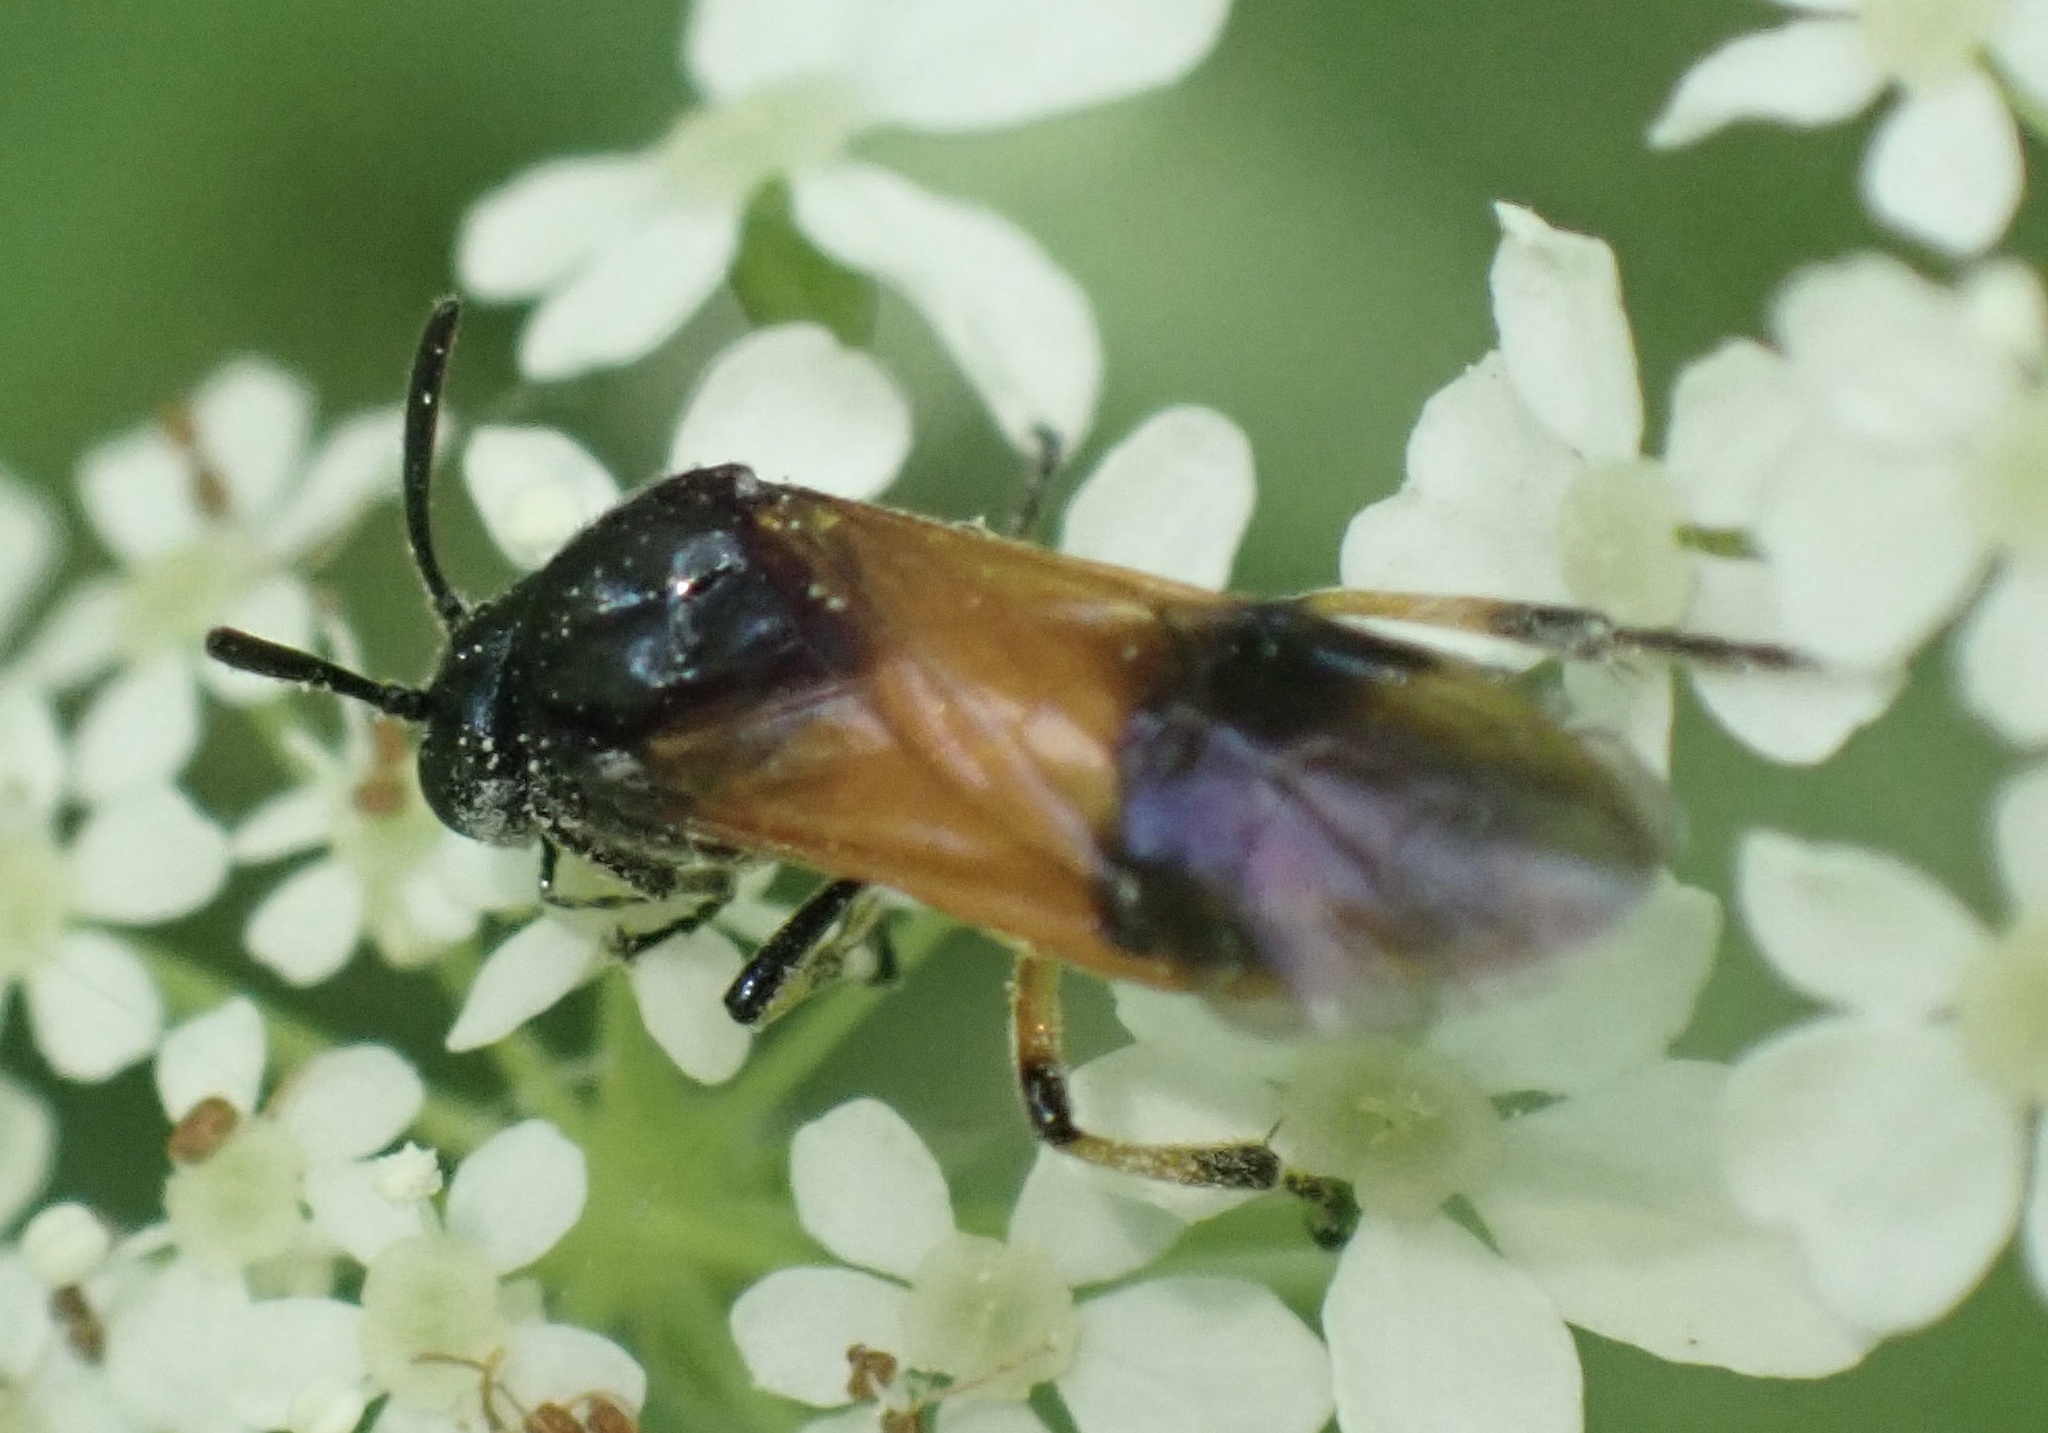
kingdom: Animalia
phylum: Arthropoda
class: Insecta
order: Hymenoptera
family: Argidae
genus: Arge
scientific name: Arge cyanocrocea
